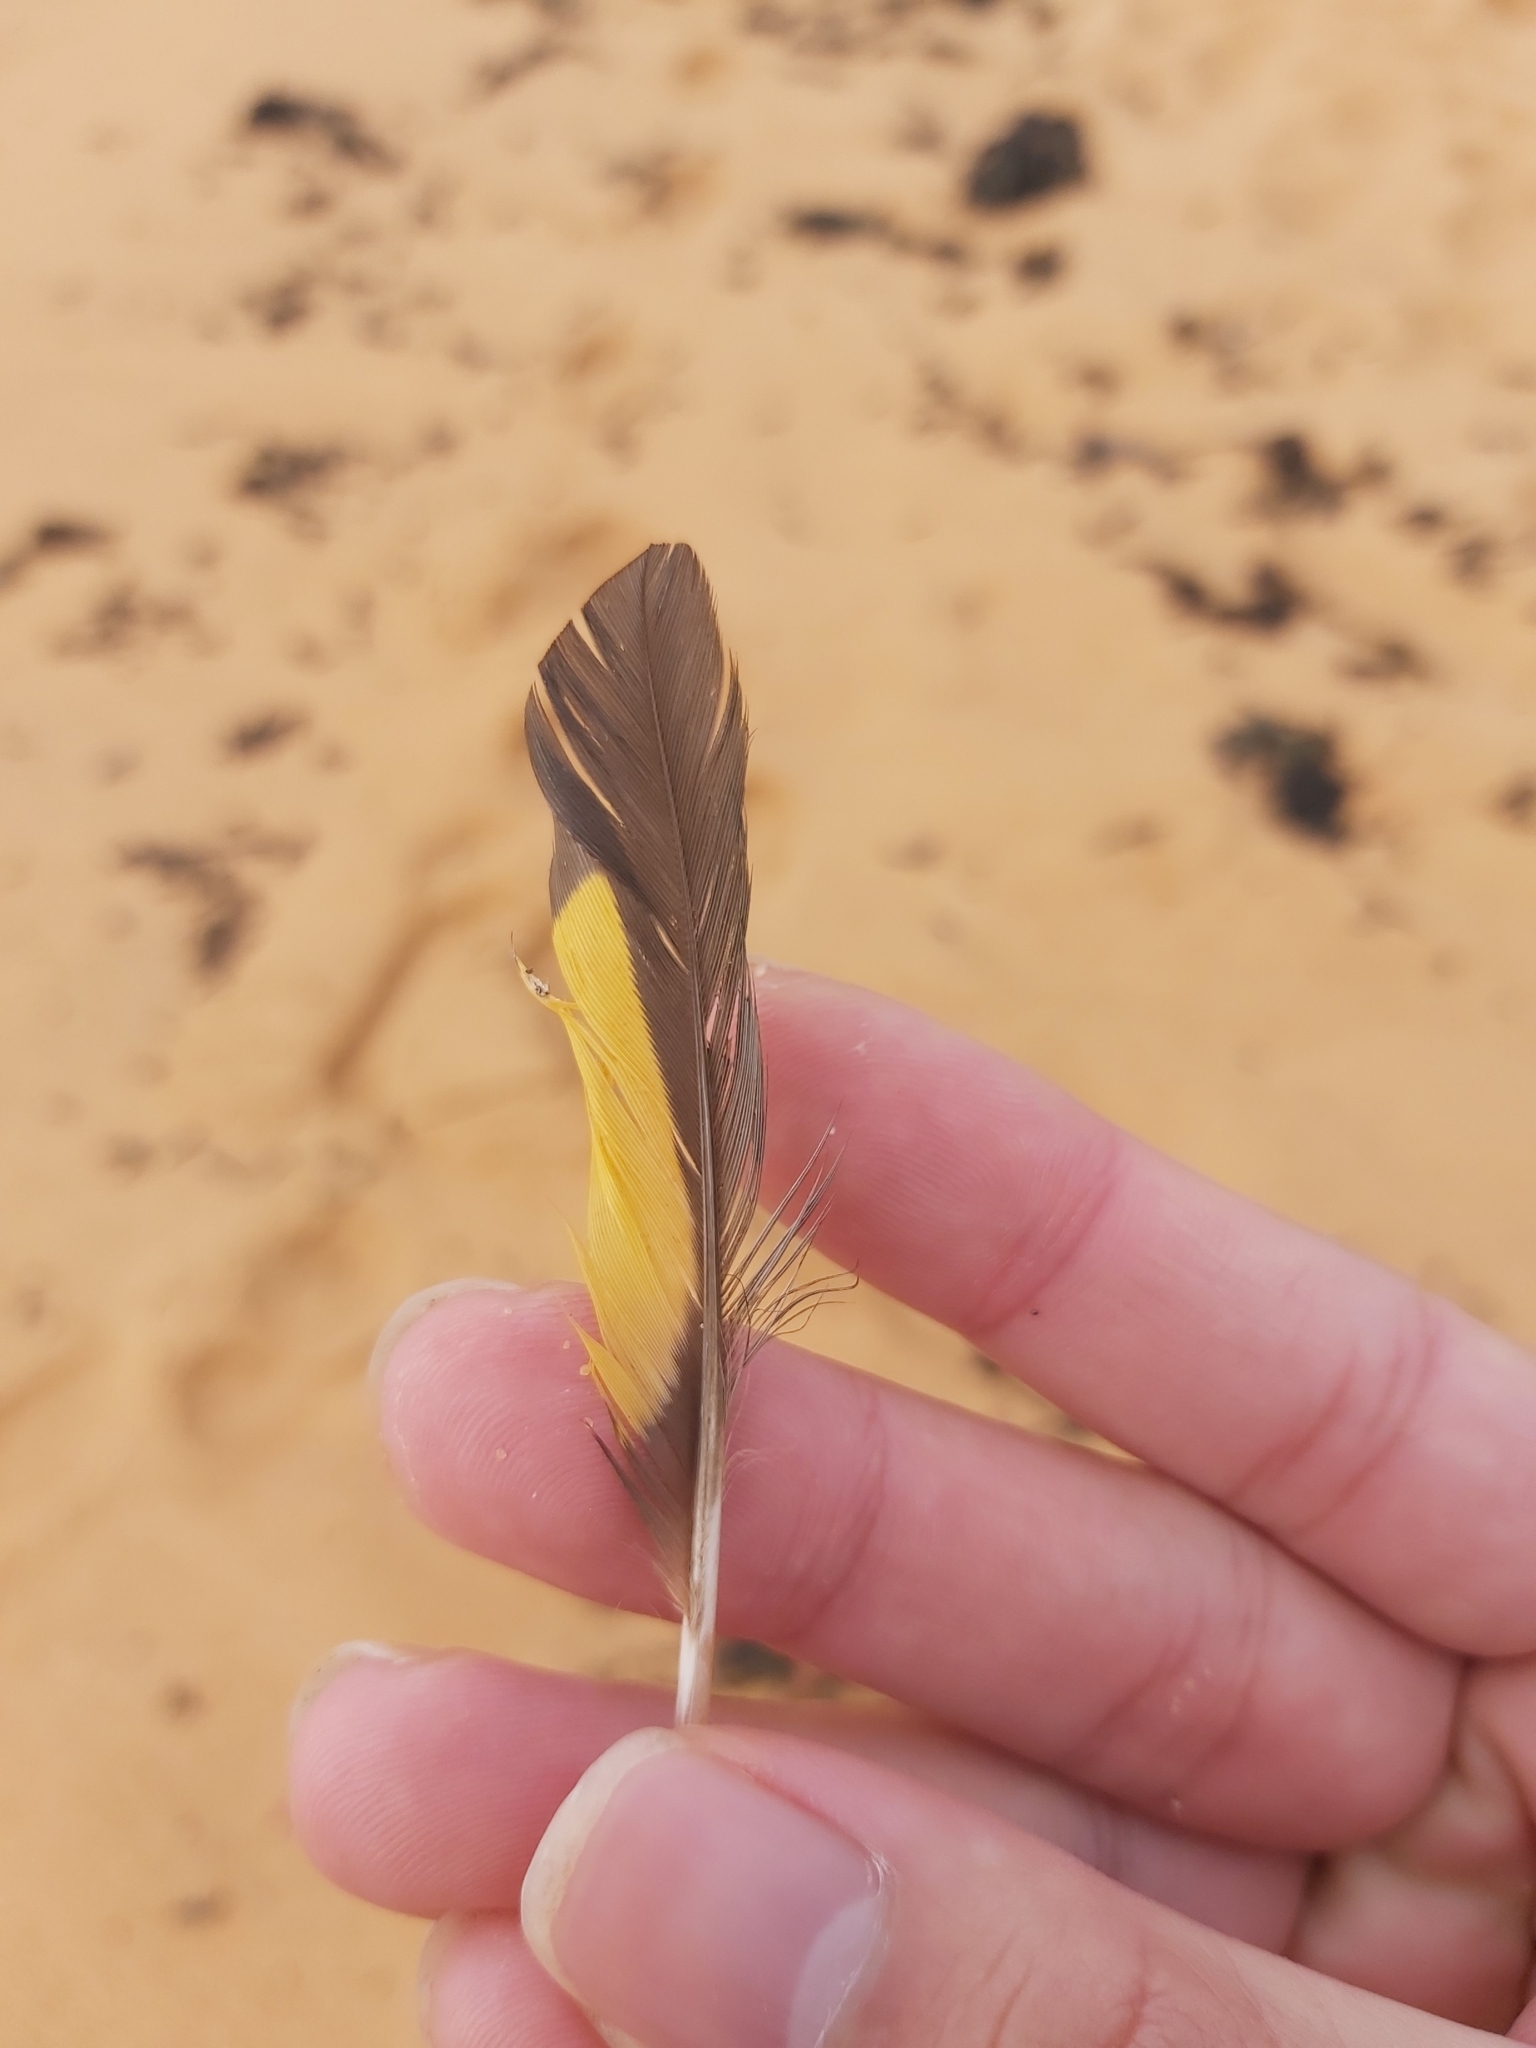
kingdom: Animalia
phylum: Chordata
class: Aves
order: Psittaciformes
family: Psittacidae
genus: Trichoglossus
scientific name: Trichoglossus haematodus
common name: Coconut lorikeet
